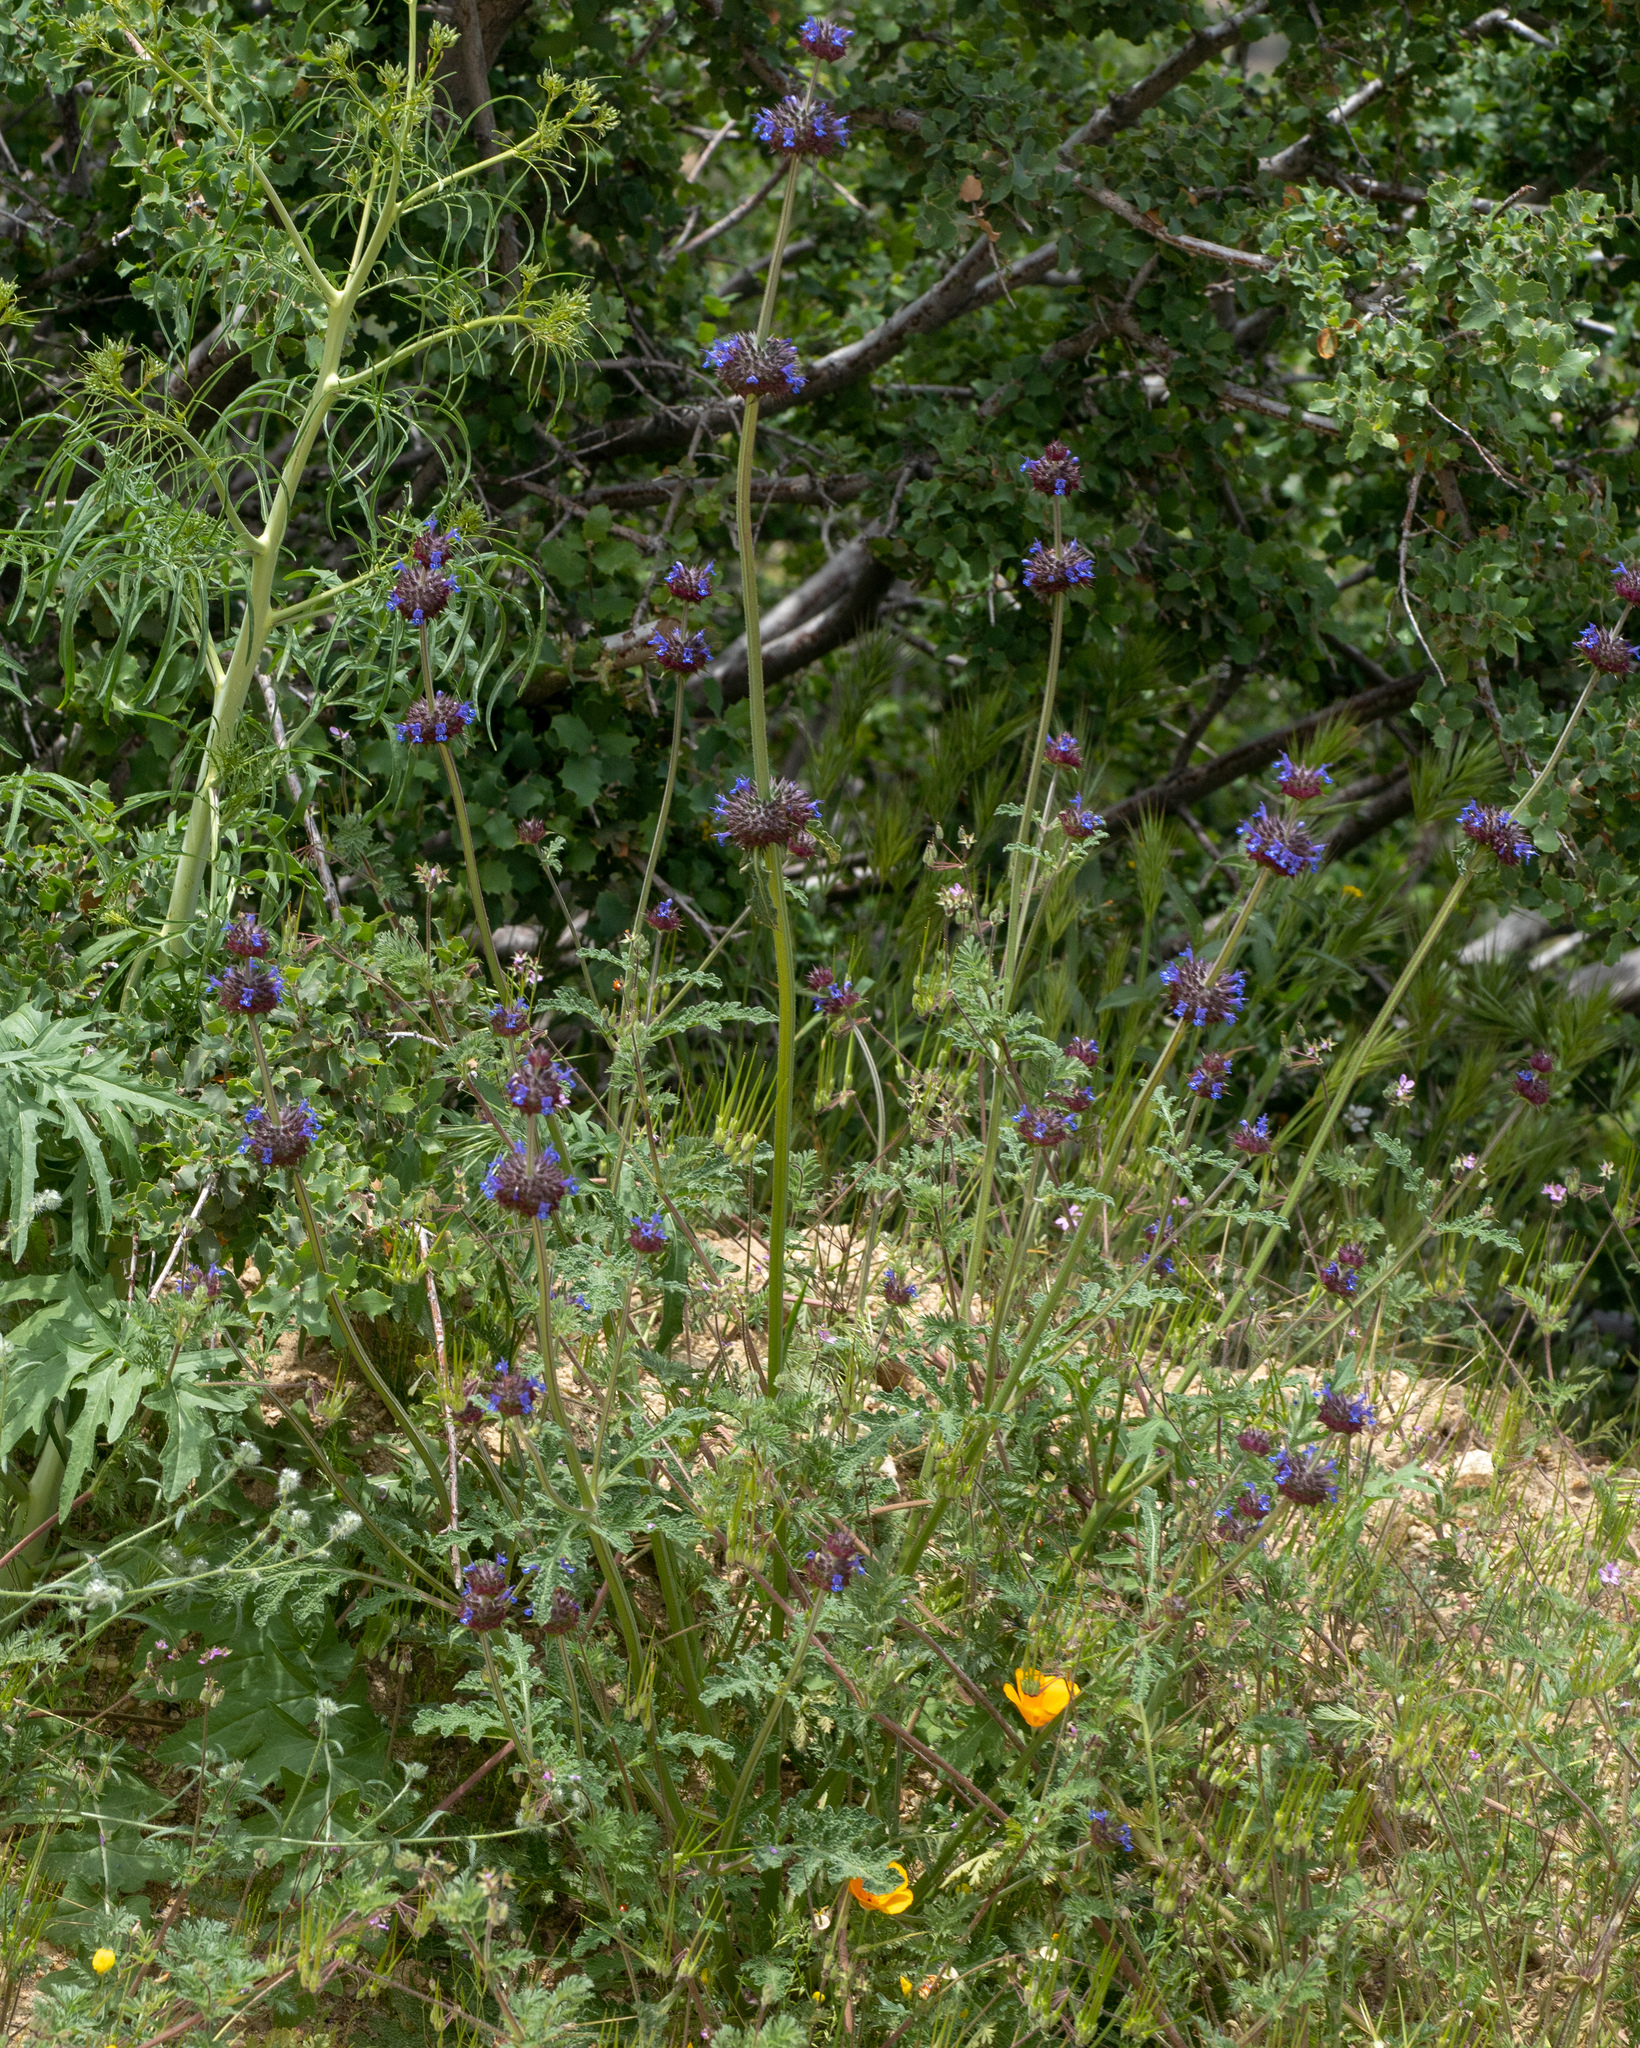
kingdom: Plantae
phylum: Tracheophyta
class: Magnoliopsida
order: Lamiales
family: Lamiaceae
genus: Salvia
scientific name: Salvia columbariae
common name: Chia
